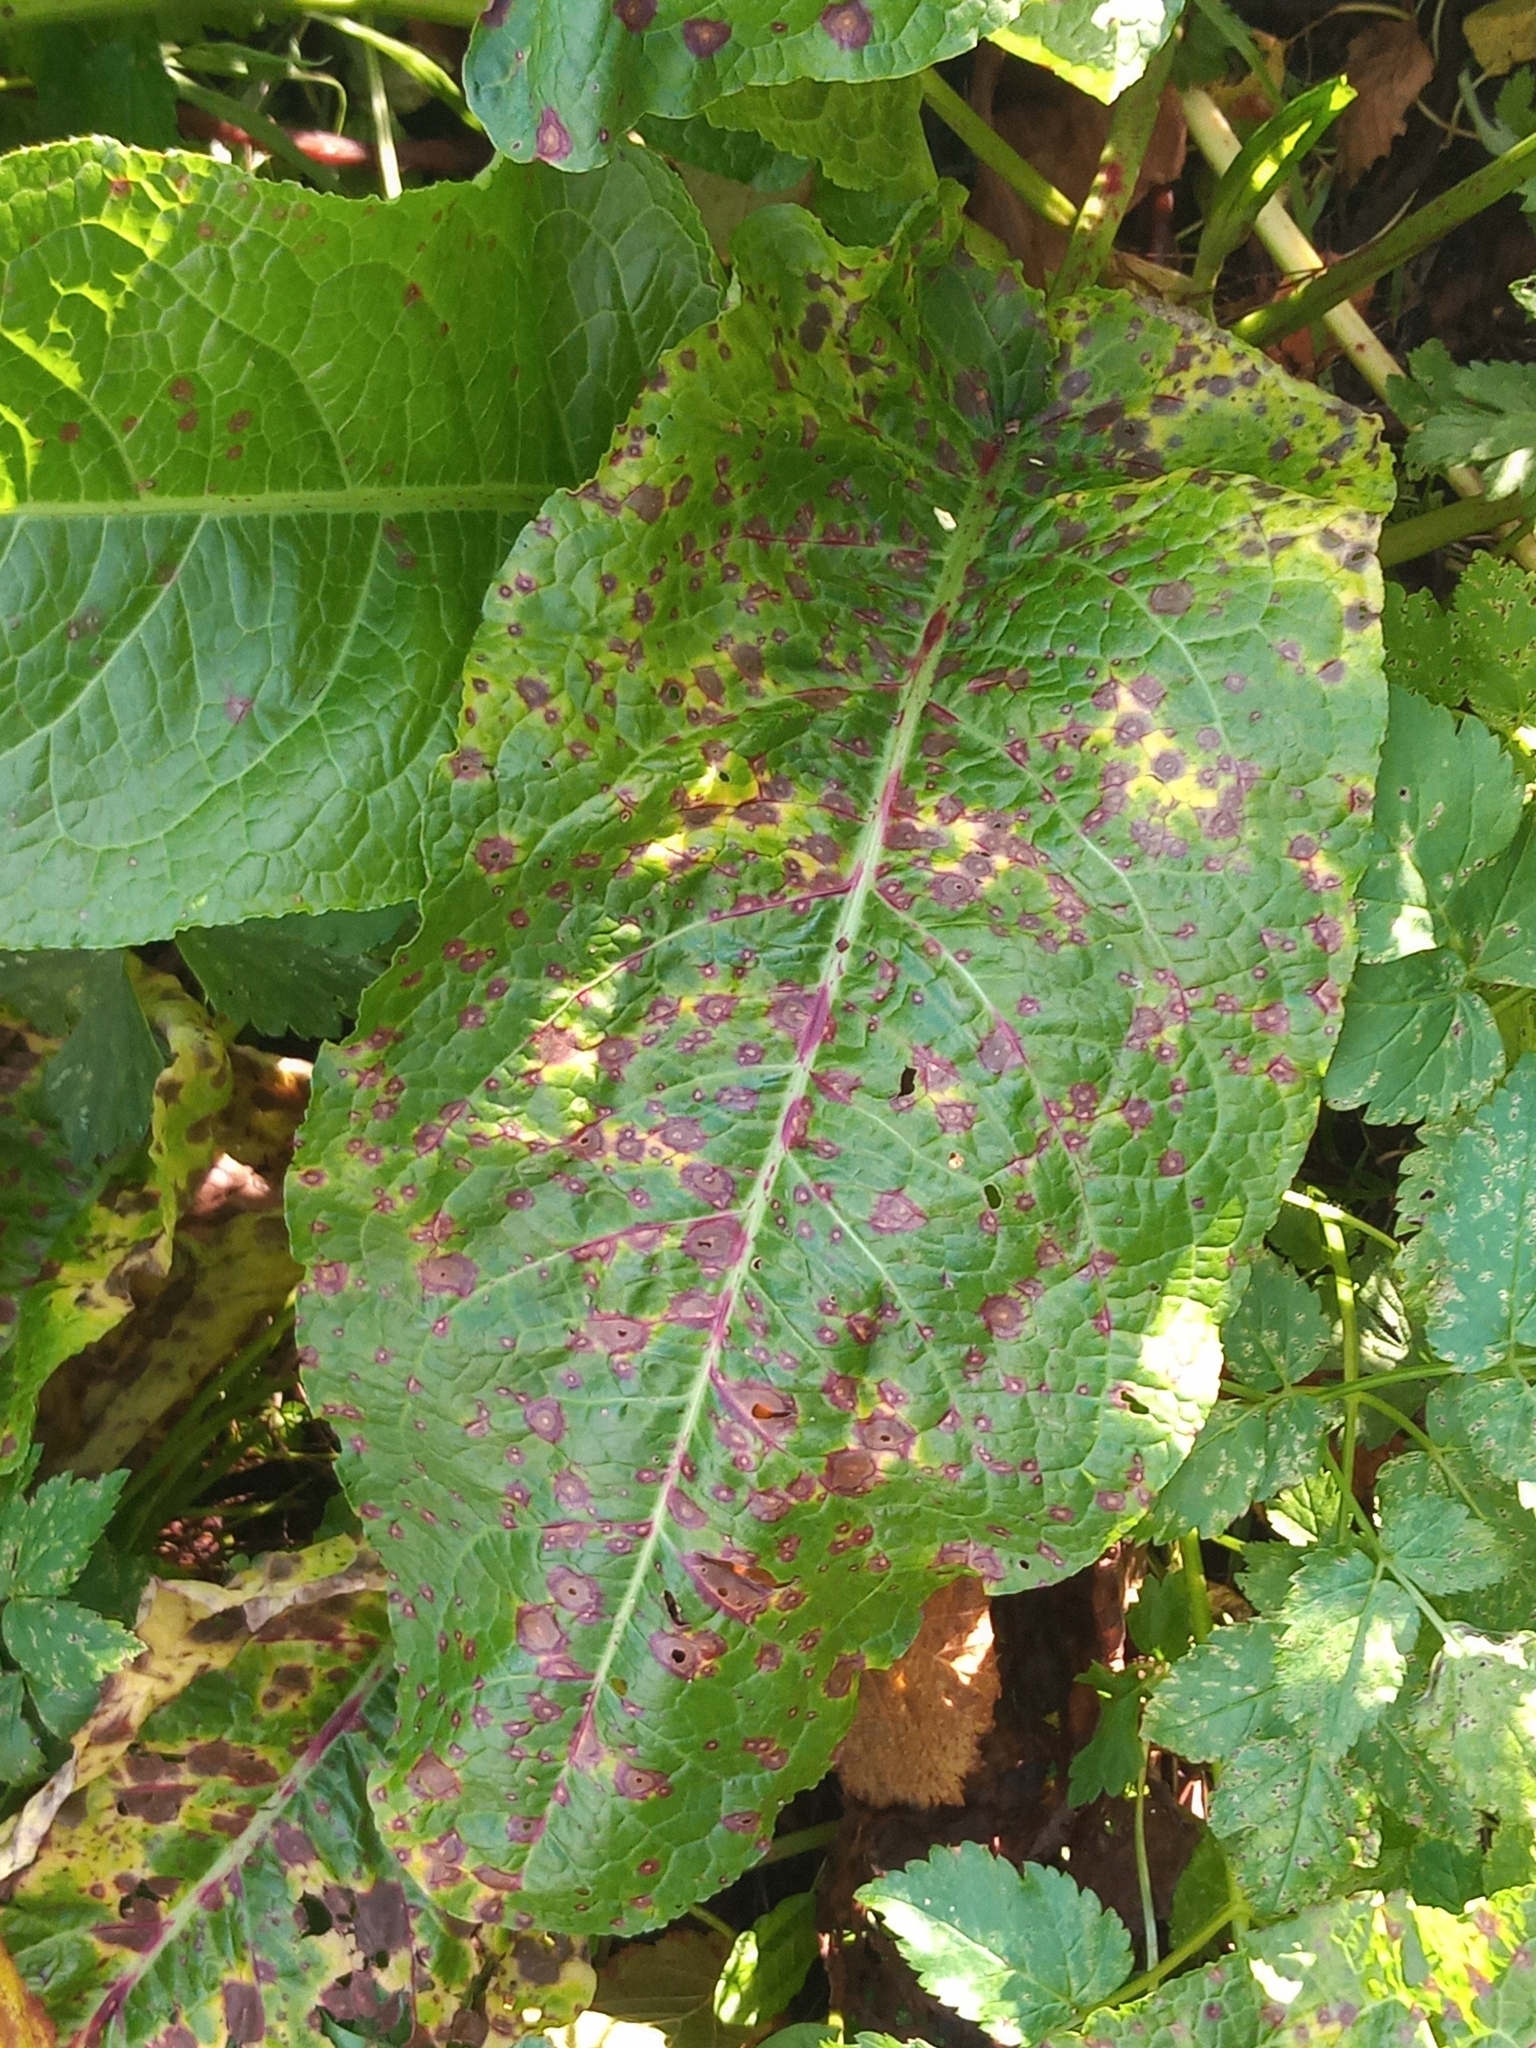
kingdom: Plantae
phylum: Tracheophyta
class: Magnoliopsida
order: Caryophyllales
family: Polygonaceae
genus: Rumex
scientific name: Rumex obtusifolius
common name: Bitter dock
